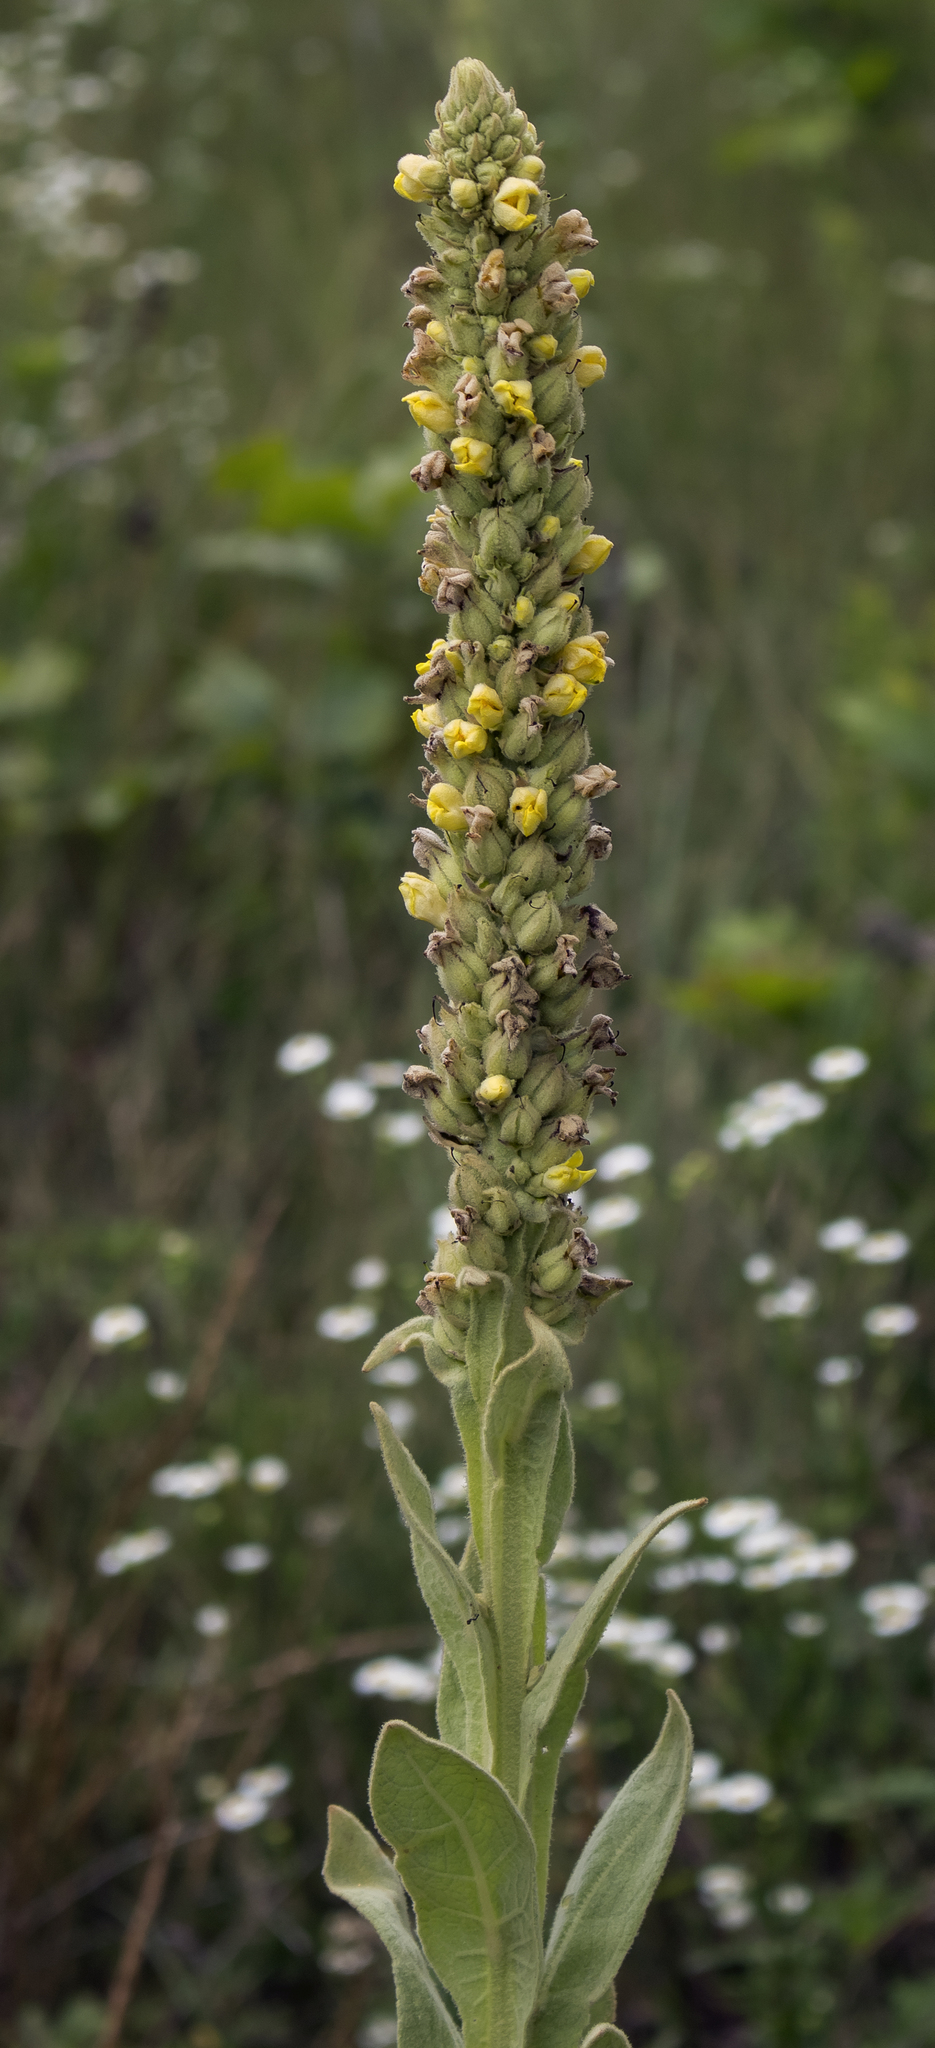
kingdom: Plantae
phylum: Tracheophyta
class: Magnoliopsida
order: Lamiales
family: Scrophulariaceae
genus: Verbascum
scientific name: Verbascum thapsus
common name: Common mullein
